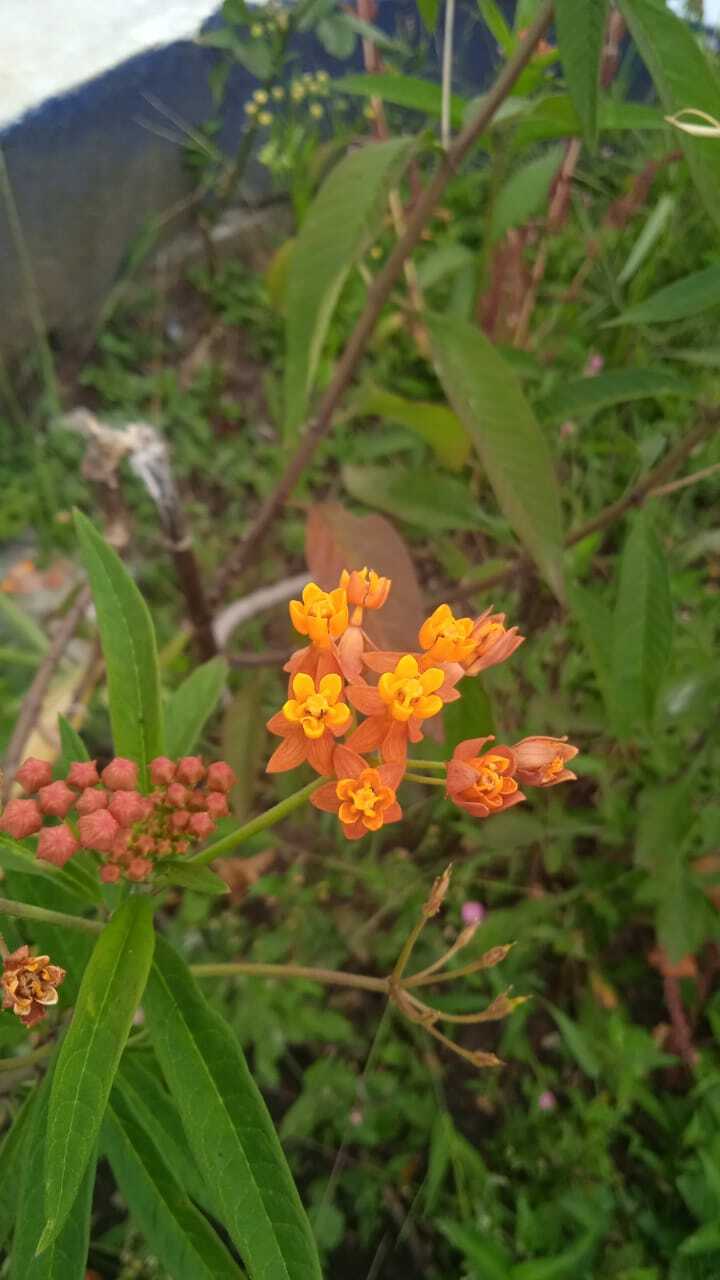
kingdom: Plantae
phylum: Tracheophyta
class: Magnoliopsida
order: Gentianales
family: Apocynaceae
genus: Asclepias
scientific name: Asclepias curassavica
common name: Bloodflower
